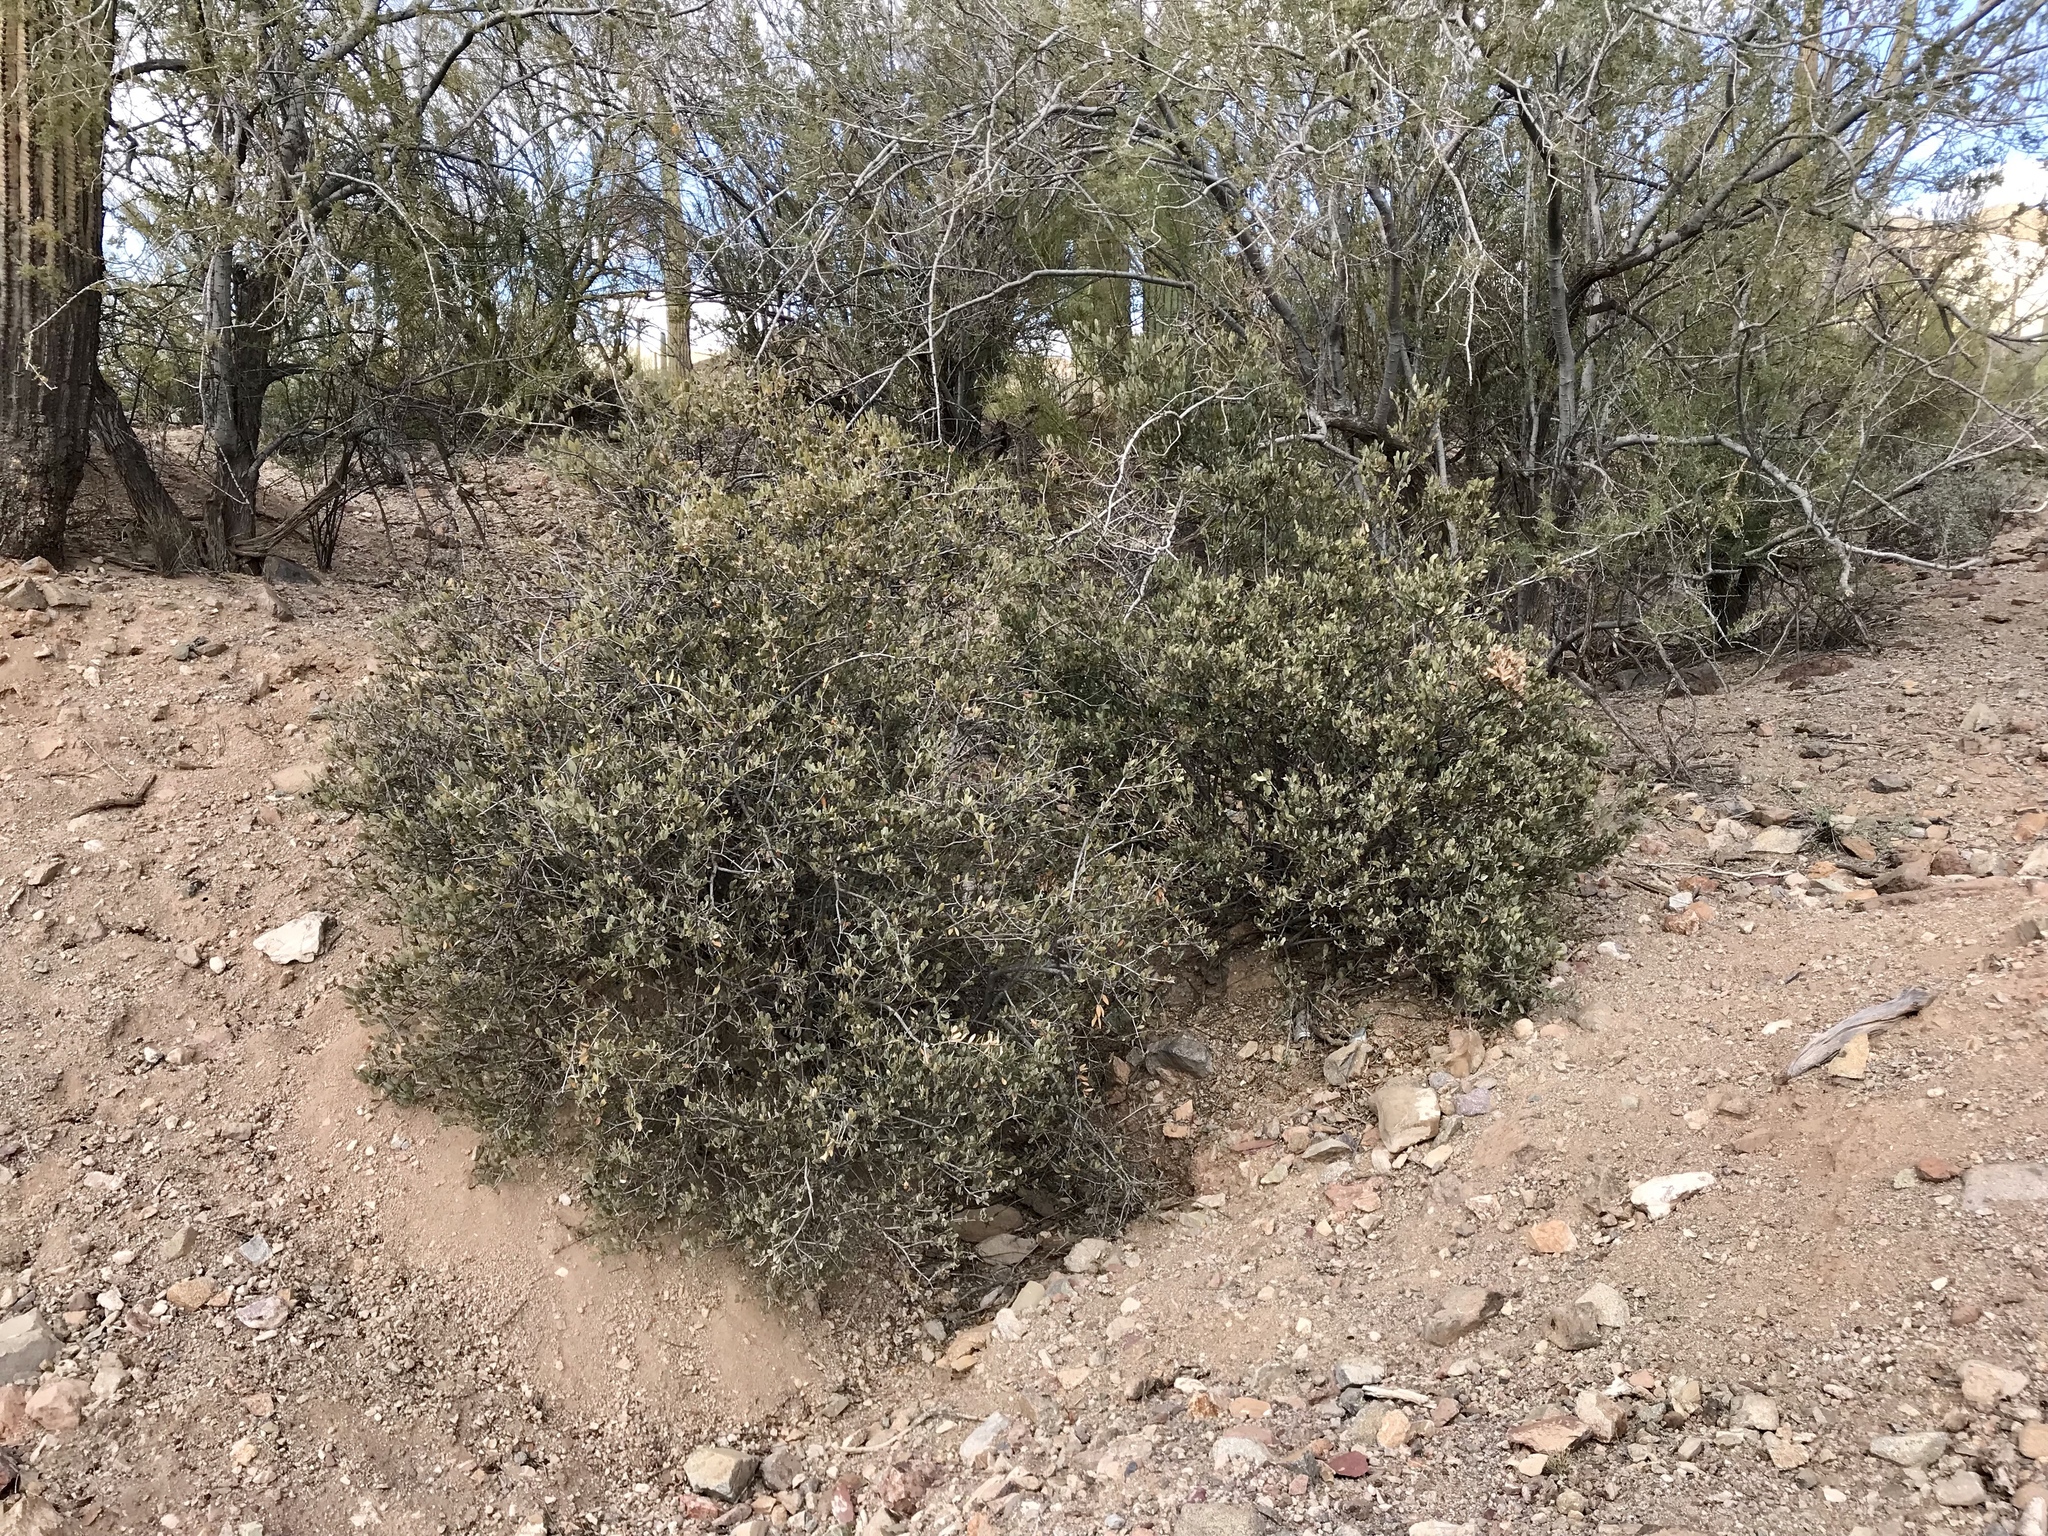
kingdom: Plantae
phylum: Tracheophyta
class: Magnoliopsida
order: Caryophyllales
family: Simmondsiaceae
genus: Simmondsia
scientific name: Simmondsia chinensis
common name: Jojoba
